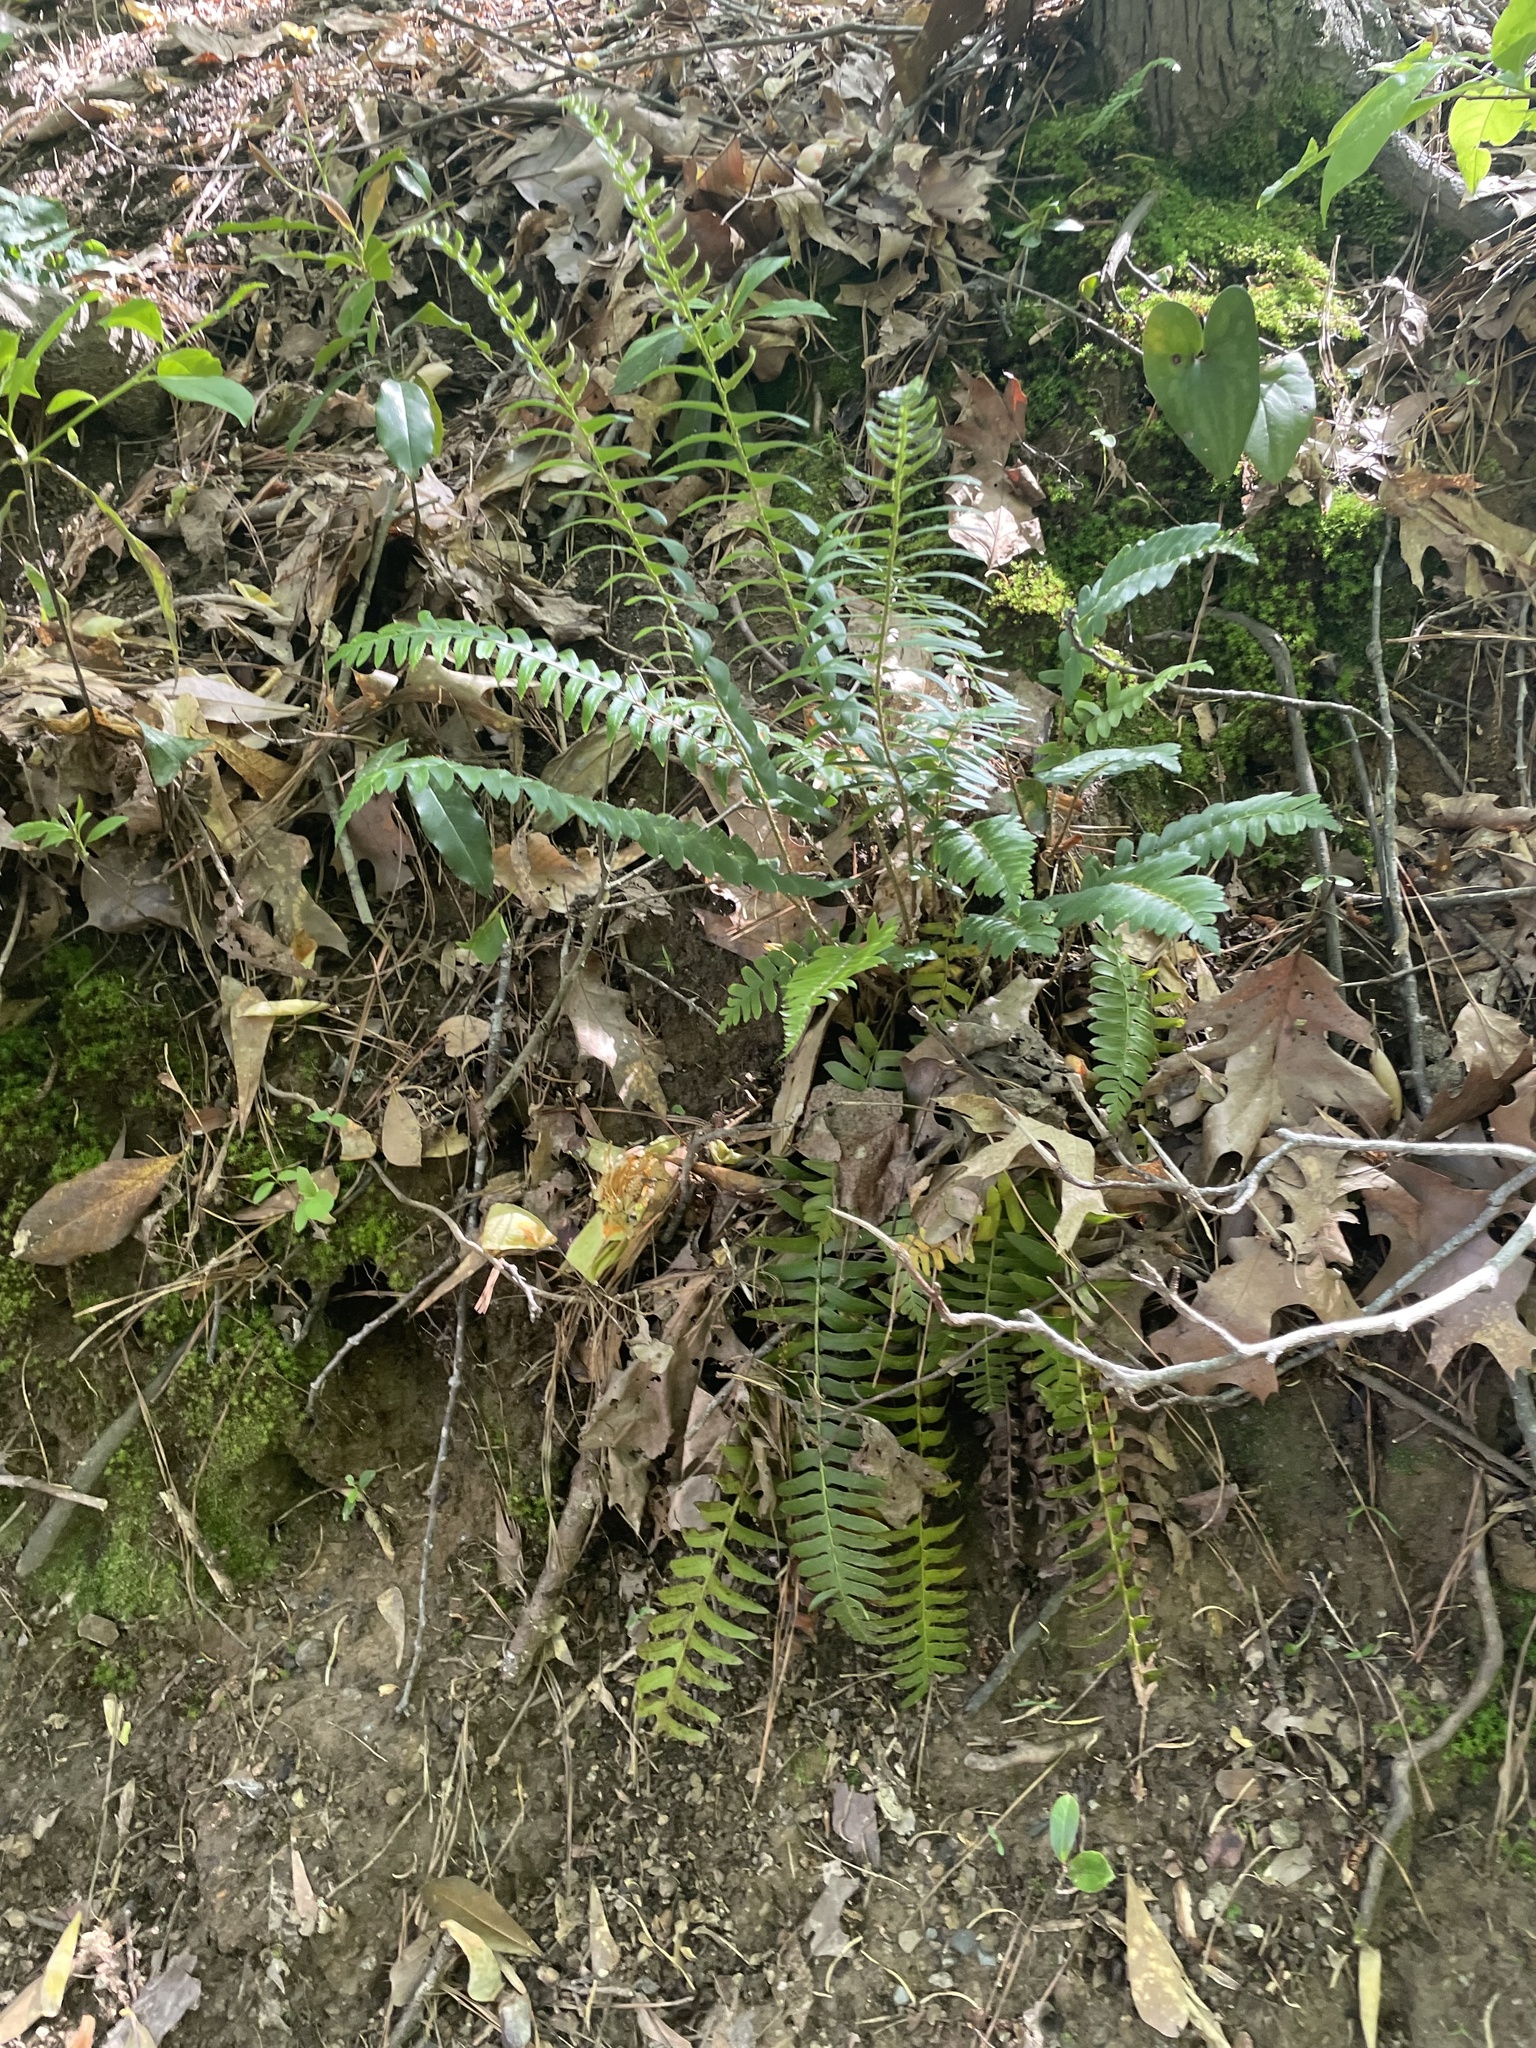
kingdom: Plantae
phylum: Tracheophyta
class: Polypodiopsida
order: Polypodiales
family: Dryopteridaceae
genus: Polystichum
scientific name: Polystichum acrostichoides
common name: Christmas fern
